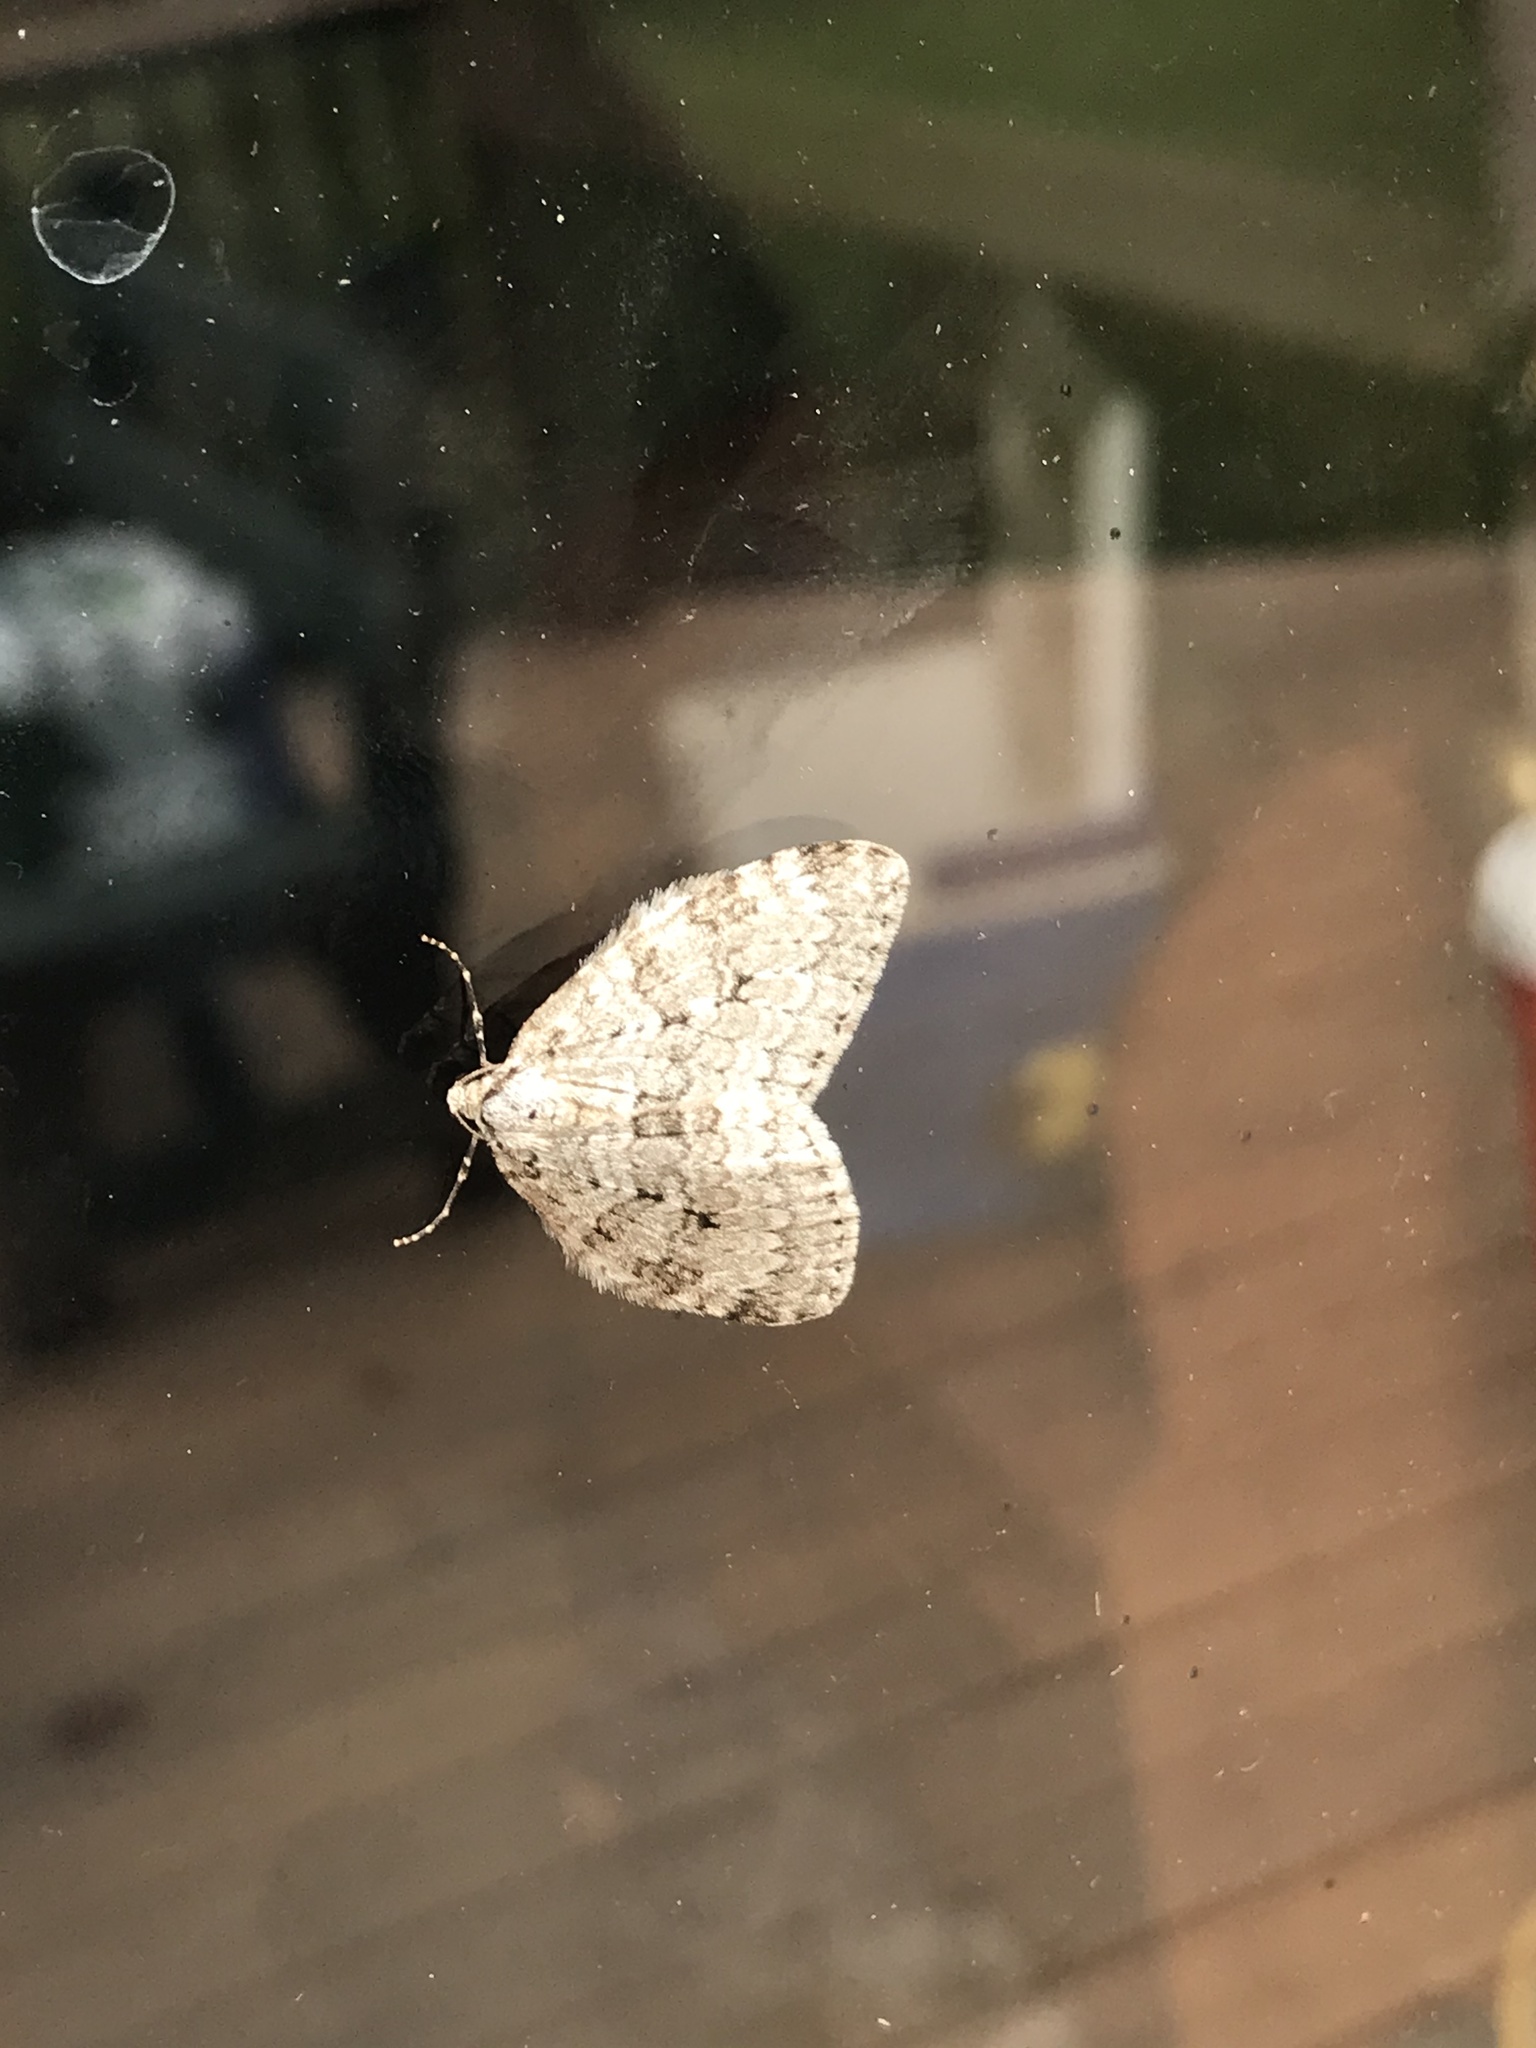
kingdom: Animalia
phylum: Arthropoda
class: Insecta
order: Lepidoptera
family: Geometridae
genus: Epirrita
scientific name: Epirrita autumnata
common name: Autumnal moth
